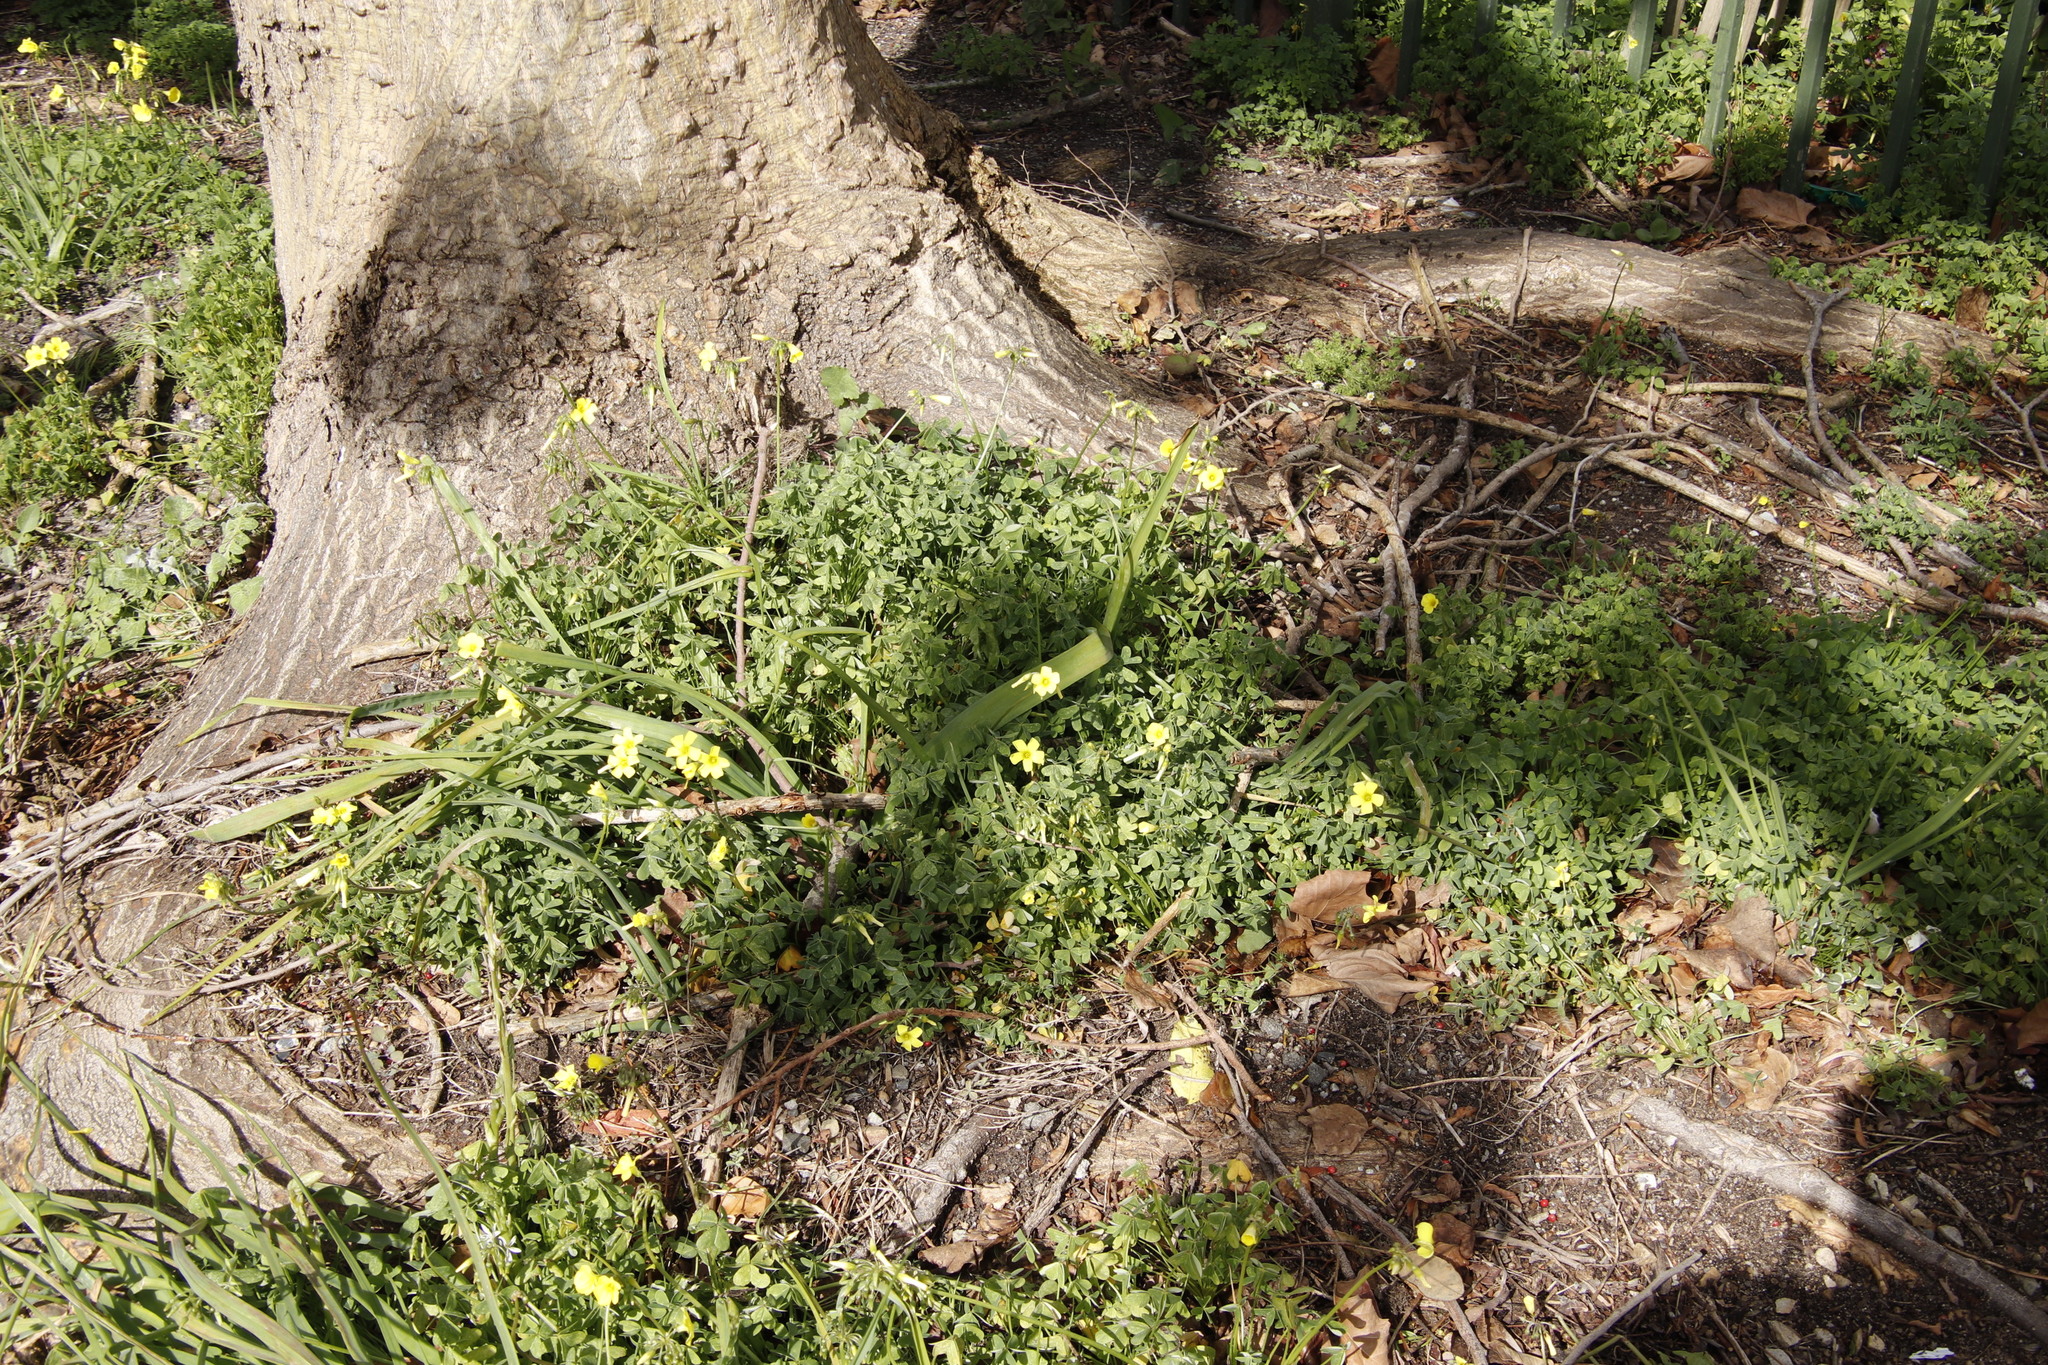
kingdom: Plantae
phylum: Tracheophyta
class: Magnoliopsida
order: Oxalidales
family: Oxalidaceae
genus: Oxalis
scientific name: Oxalis pes-caprae
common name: Bermuda-buttercup
